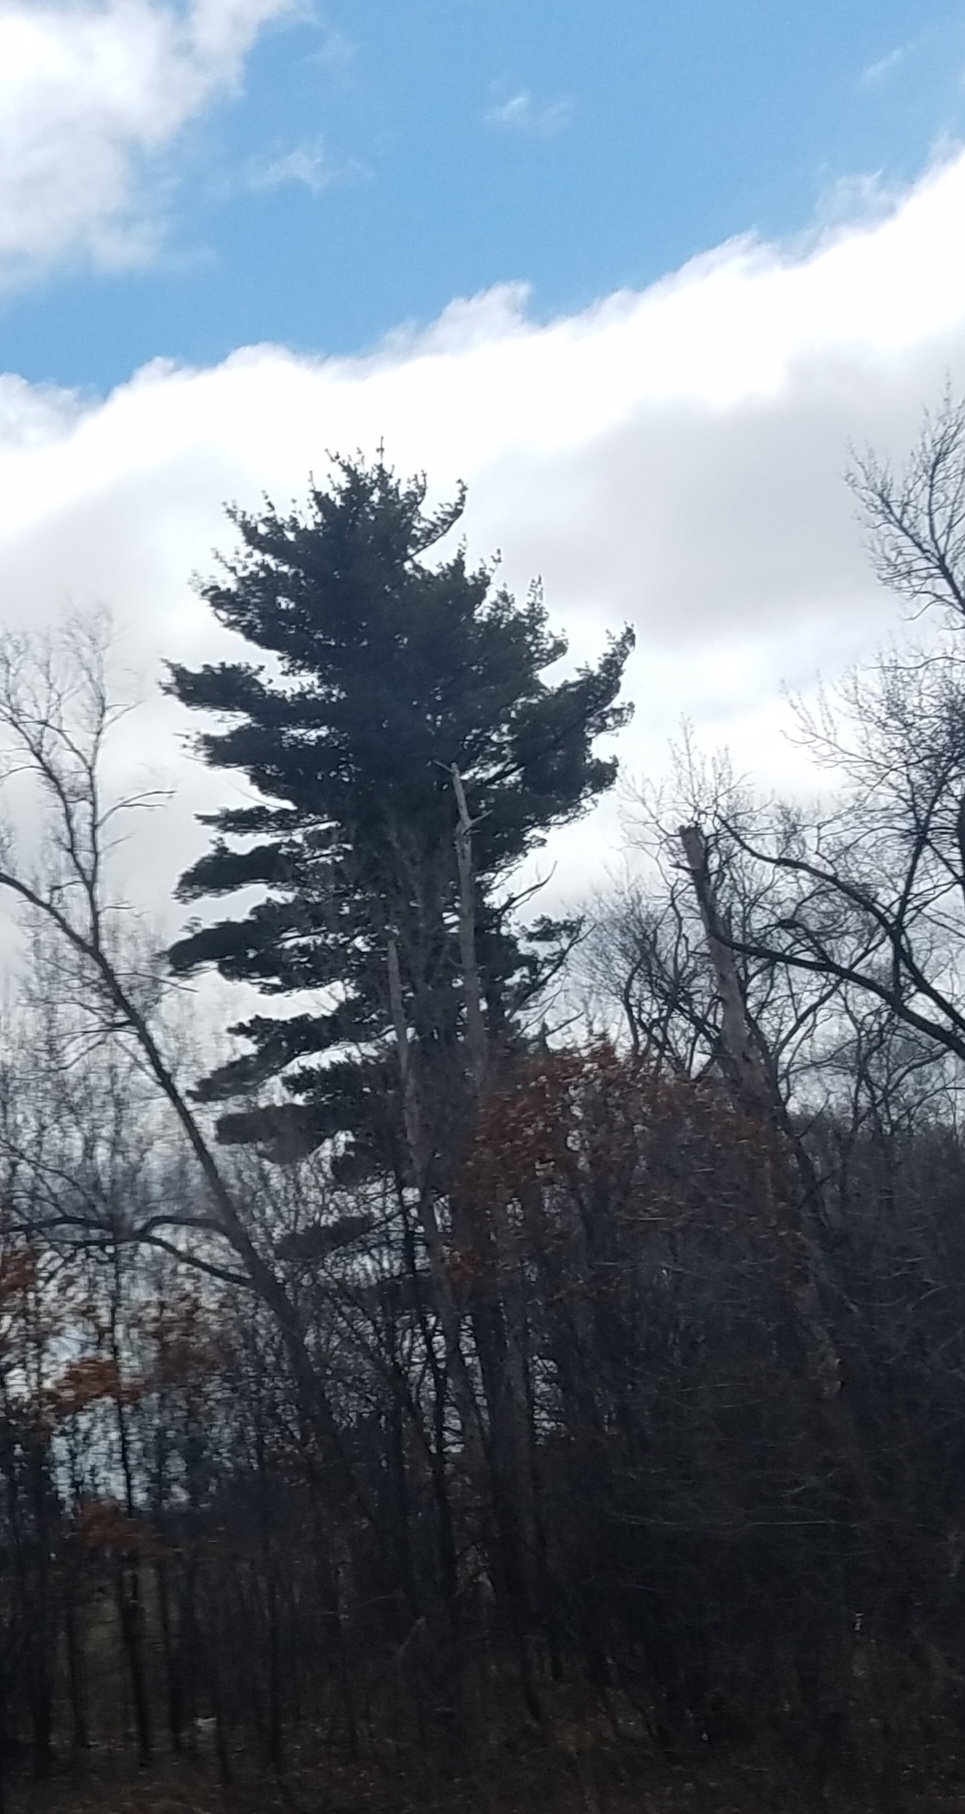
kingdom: Plantae
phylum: Tracheophyta
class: Pinopsida
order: Pinales
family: Pinaceae
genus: Pinus
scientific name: Pinus strobus
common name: Weymouth pine
